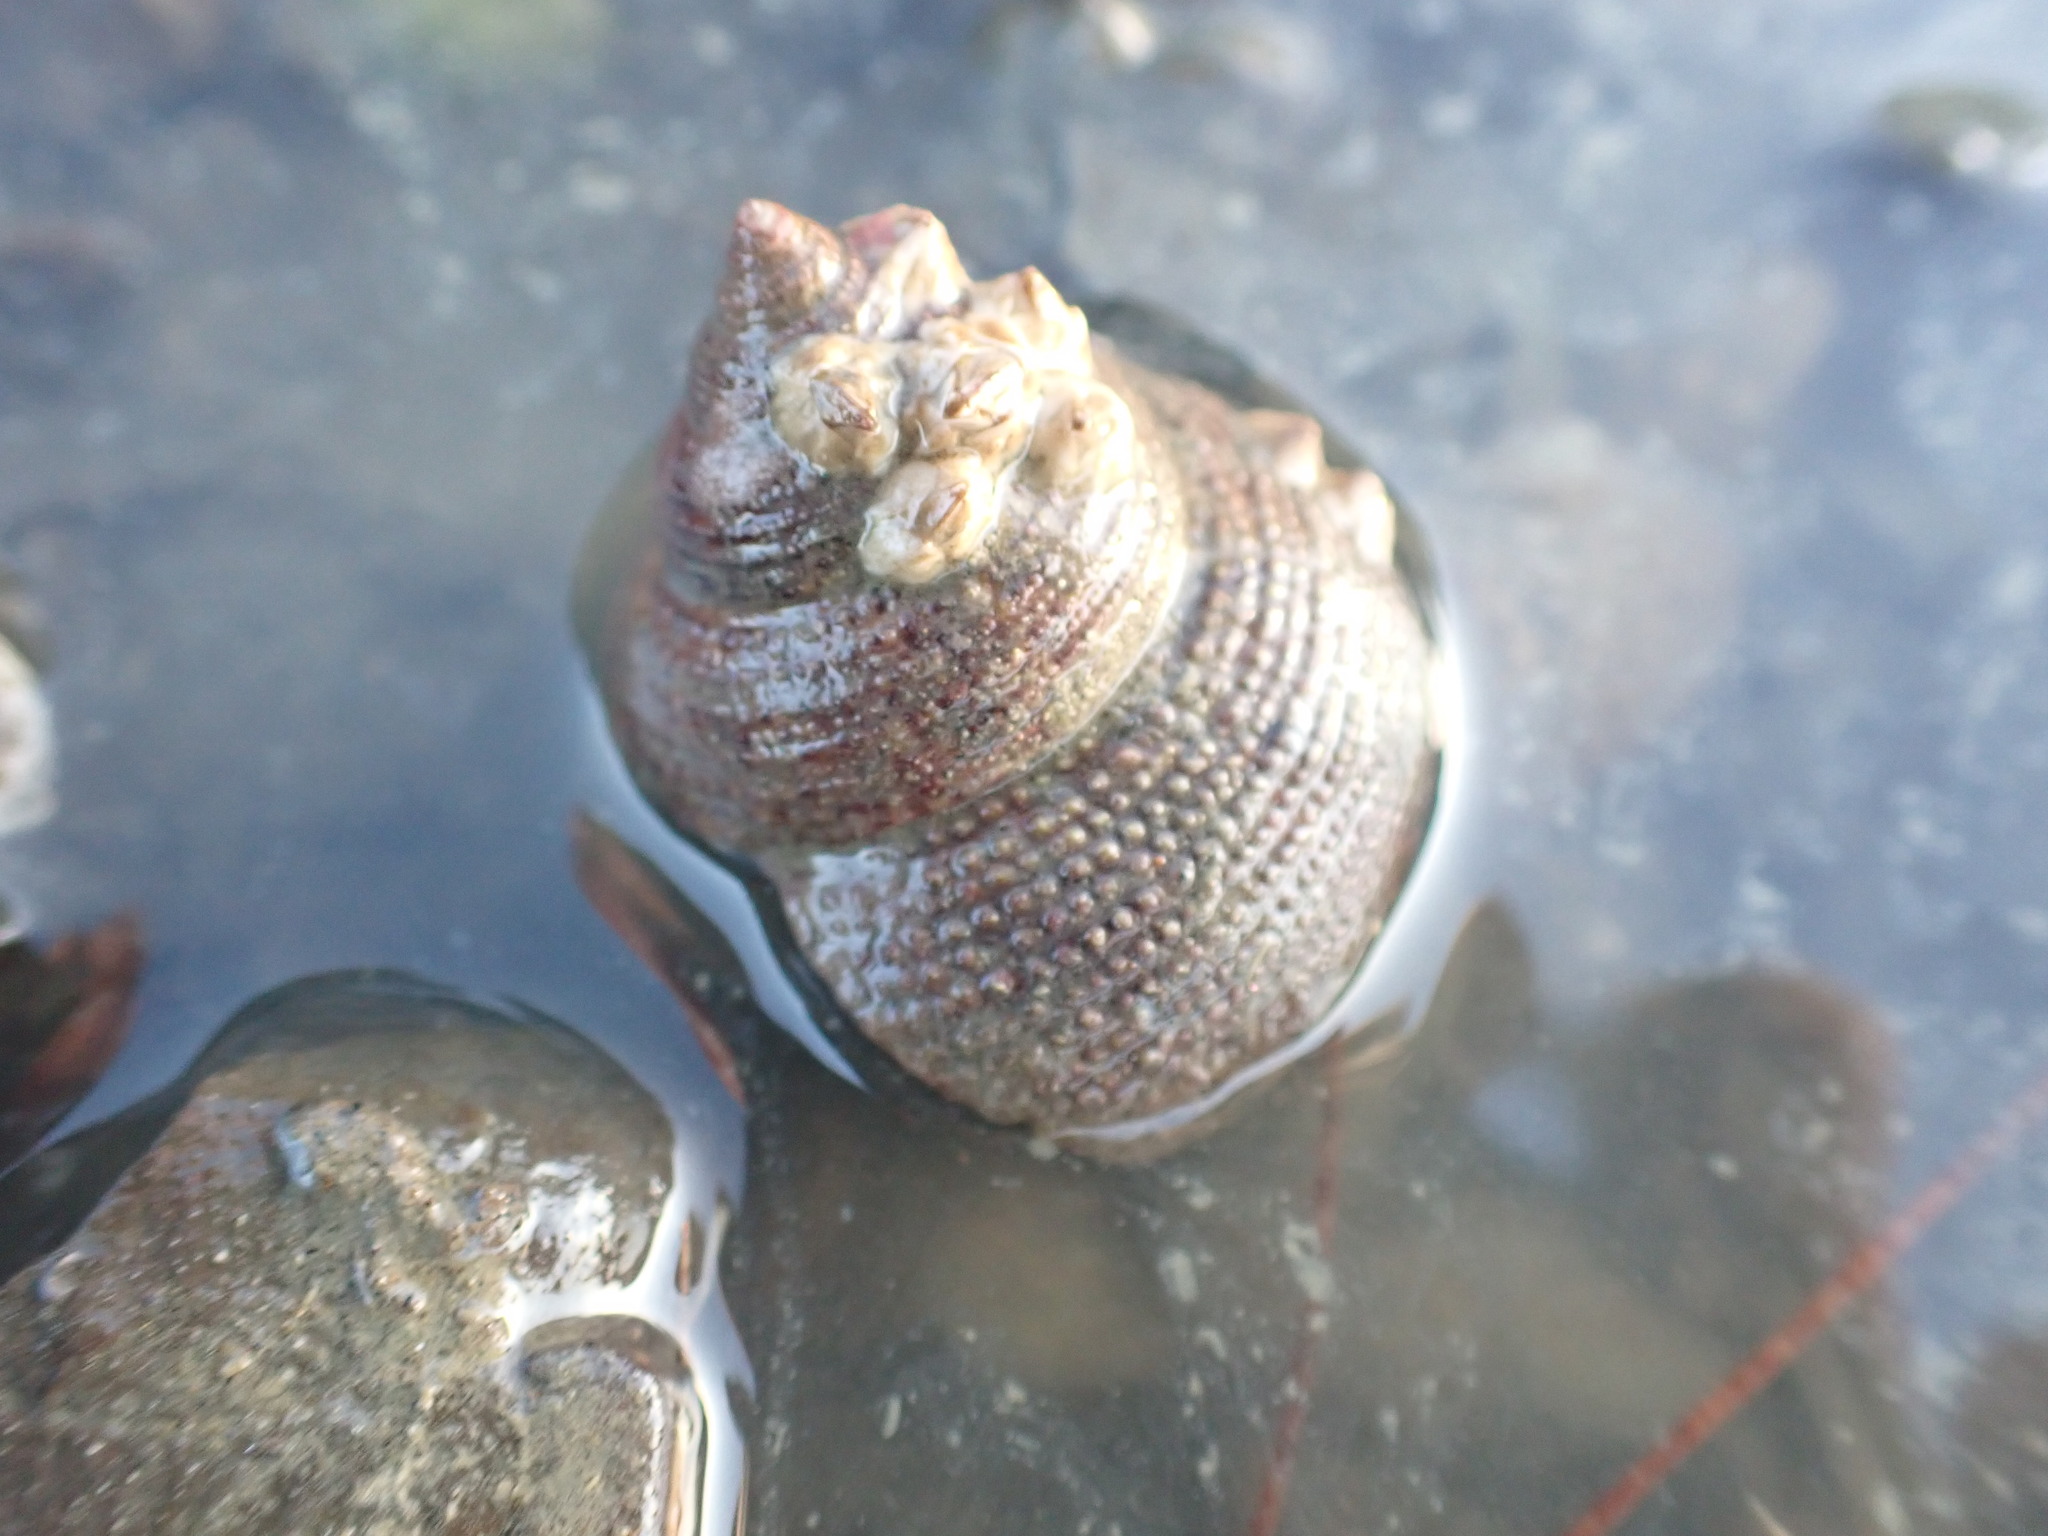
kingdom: Animalia
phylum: Mollusca
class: Gastropoda
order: Trochida
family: Calliostomatidae
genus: Maurea
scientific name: Maurea punctulata
